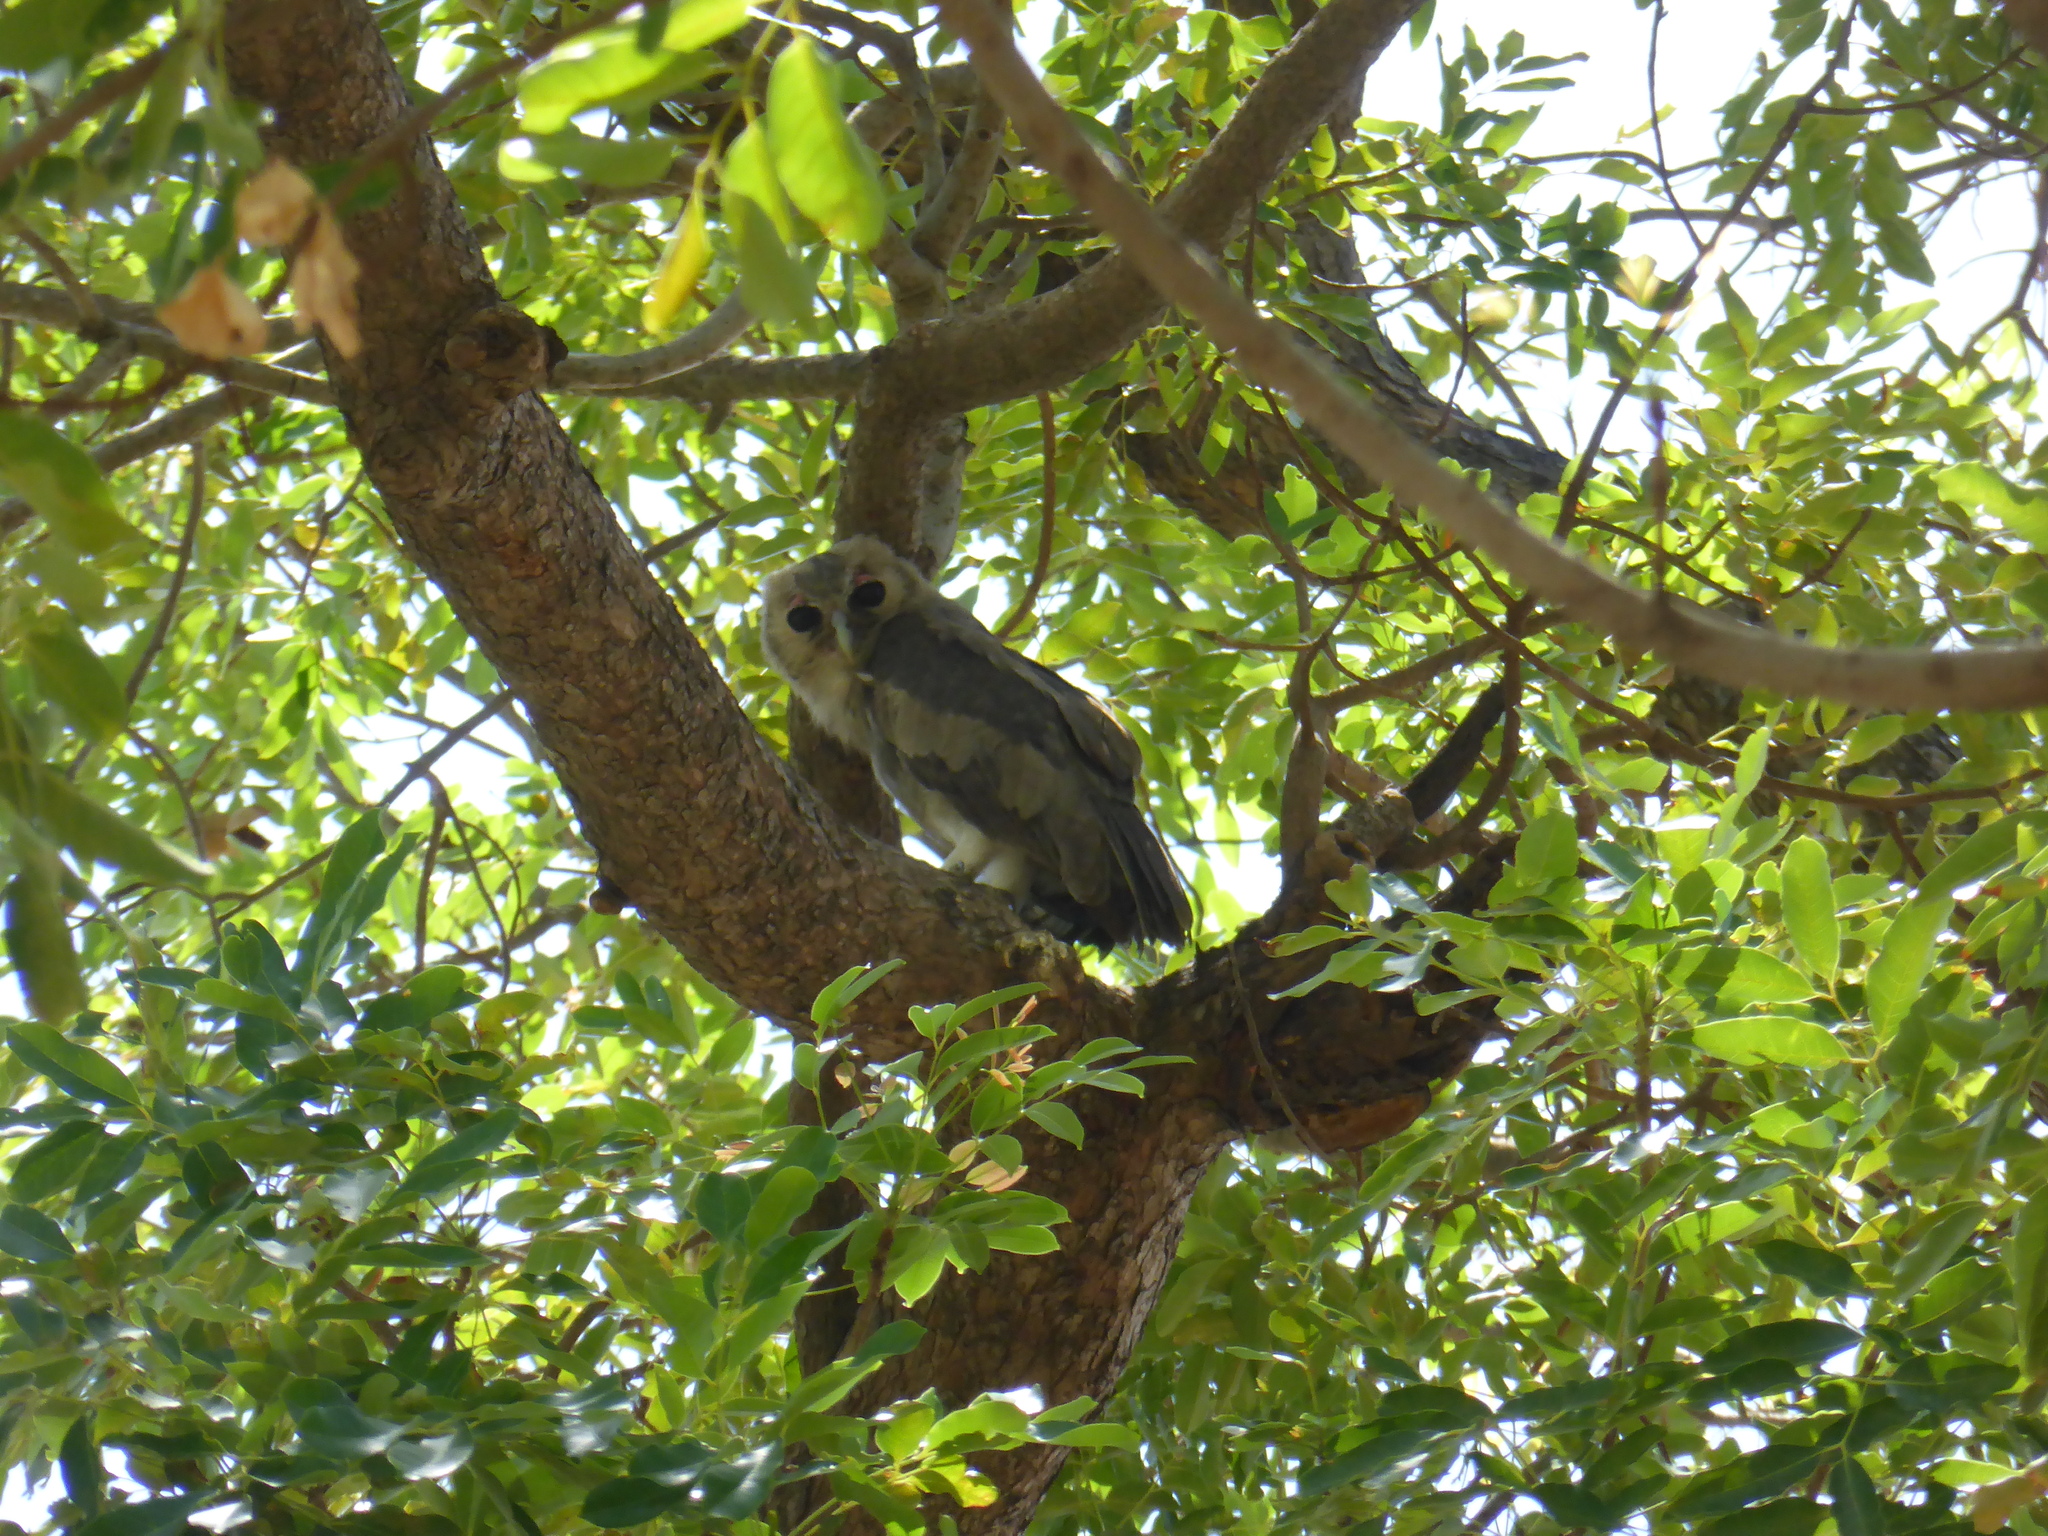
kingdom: Animalia
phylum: Chordata
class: Aves
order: Strigiformes
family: Strigidae
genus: Bubo
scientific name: Bubo lacteus
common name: Verreaux's eagle-owl
